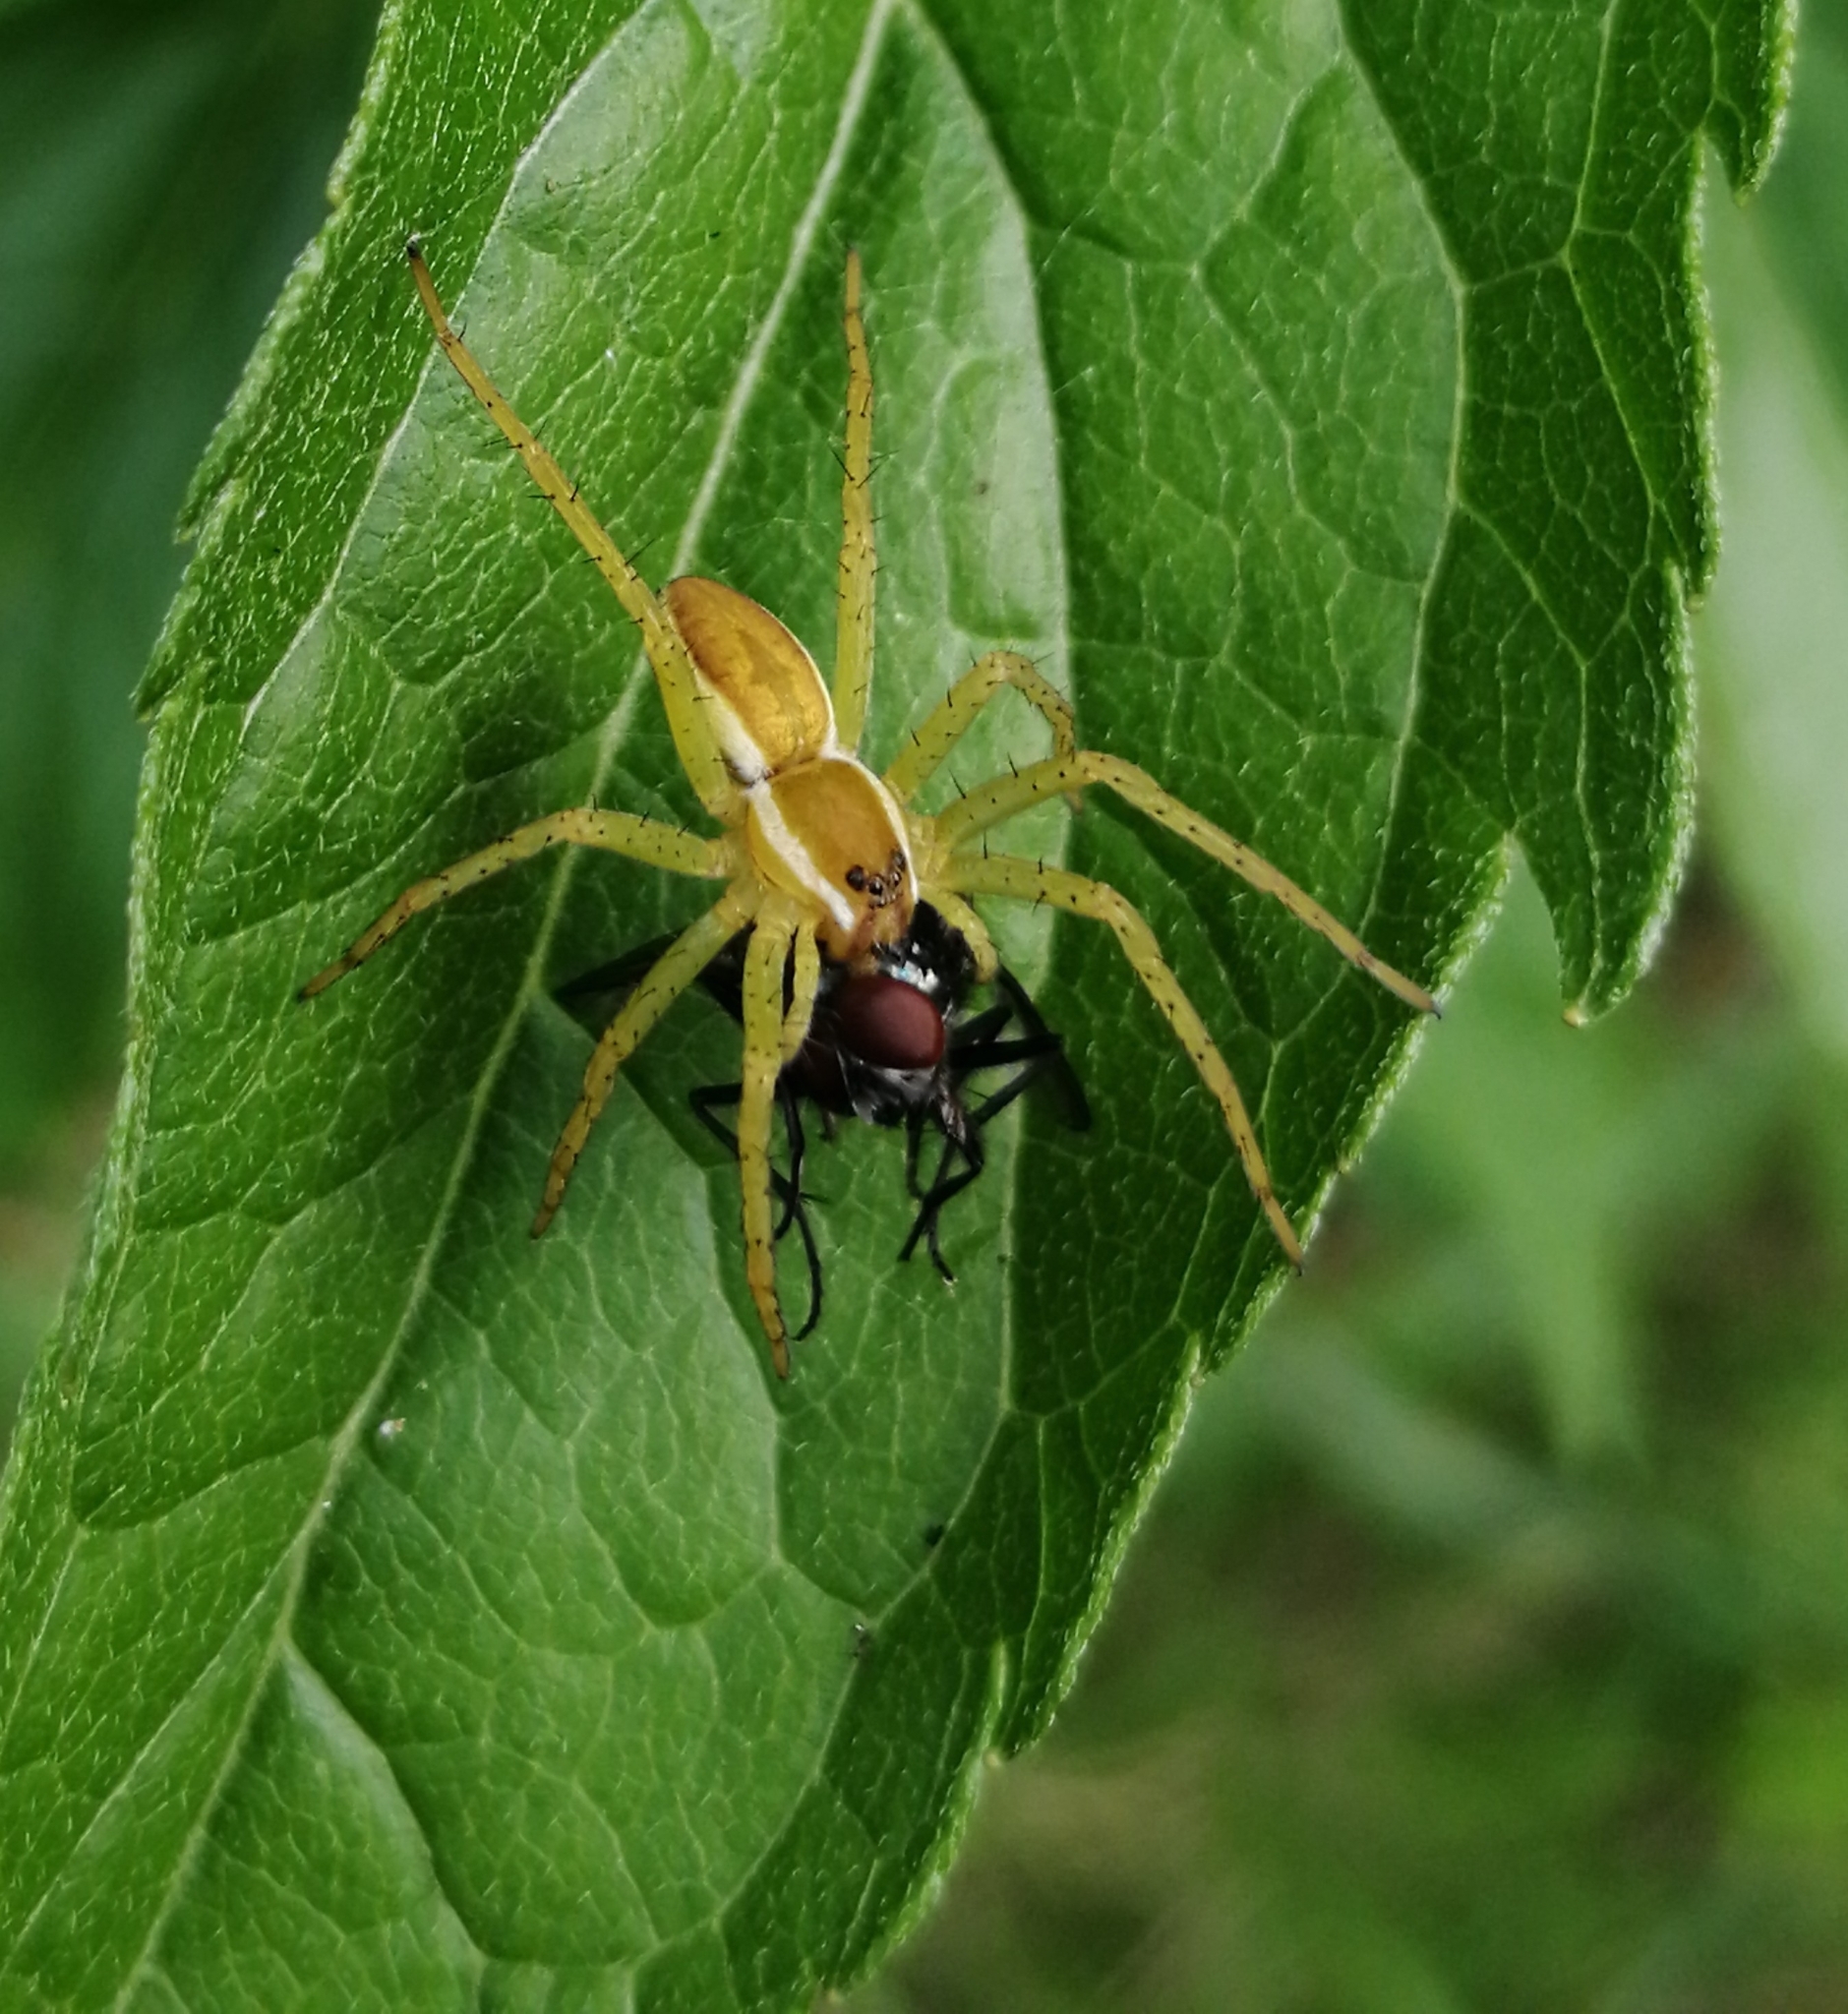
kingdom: Animalia
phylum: Arthropoda
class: Arachnida
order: Araneae
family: Pisauridae
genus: Dolomedes
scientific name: Dolomedes
